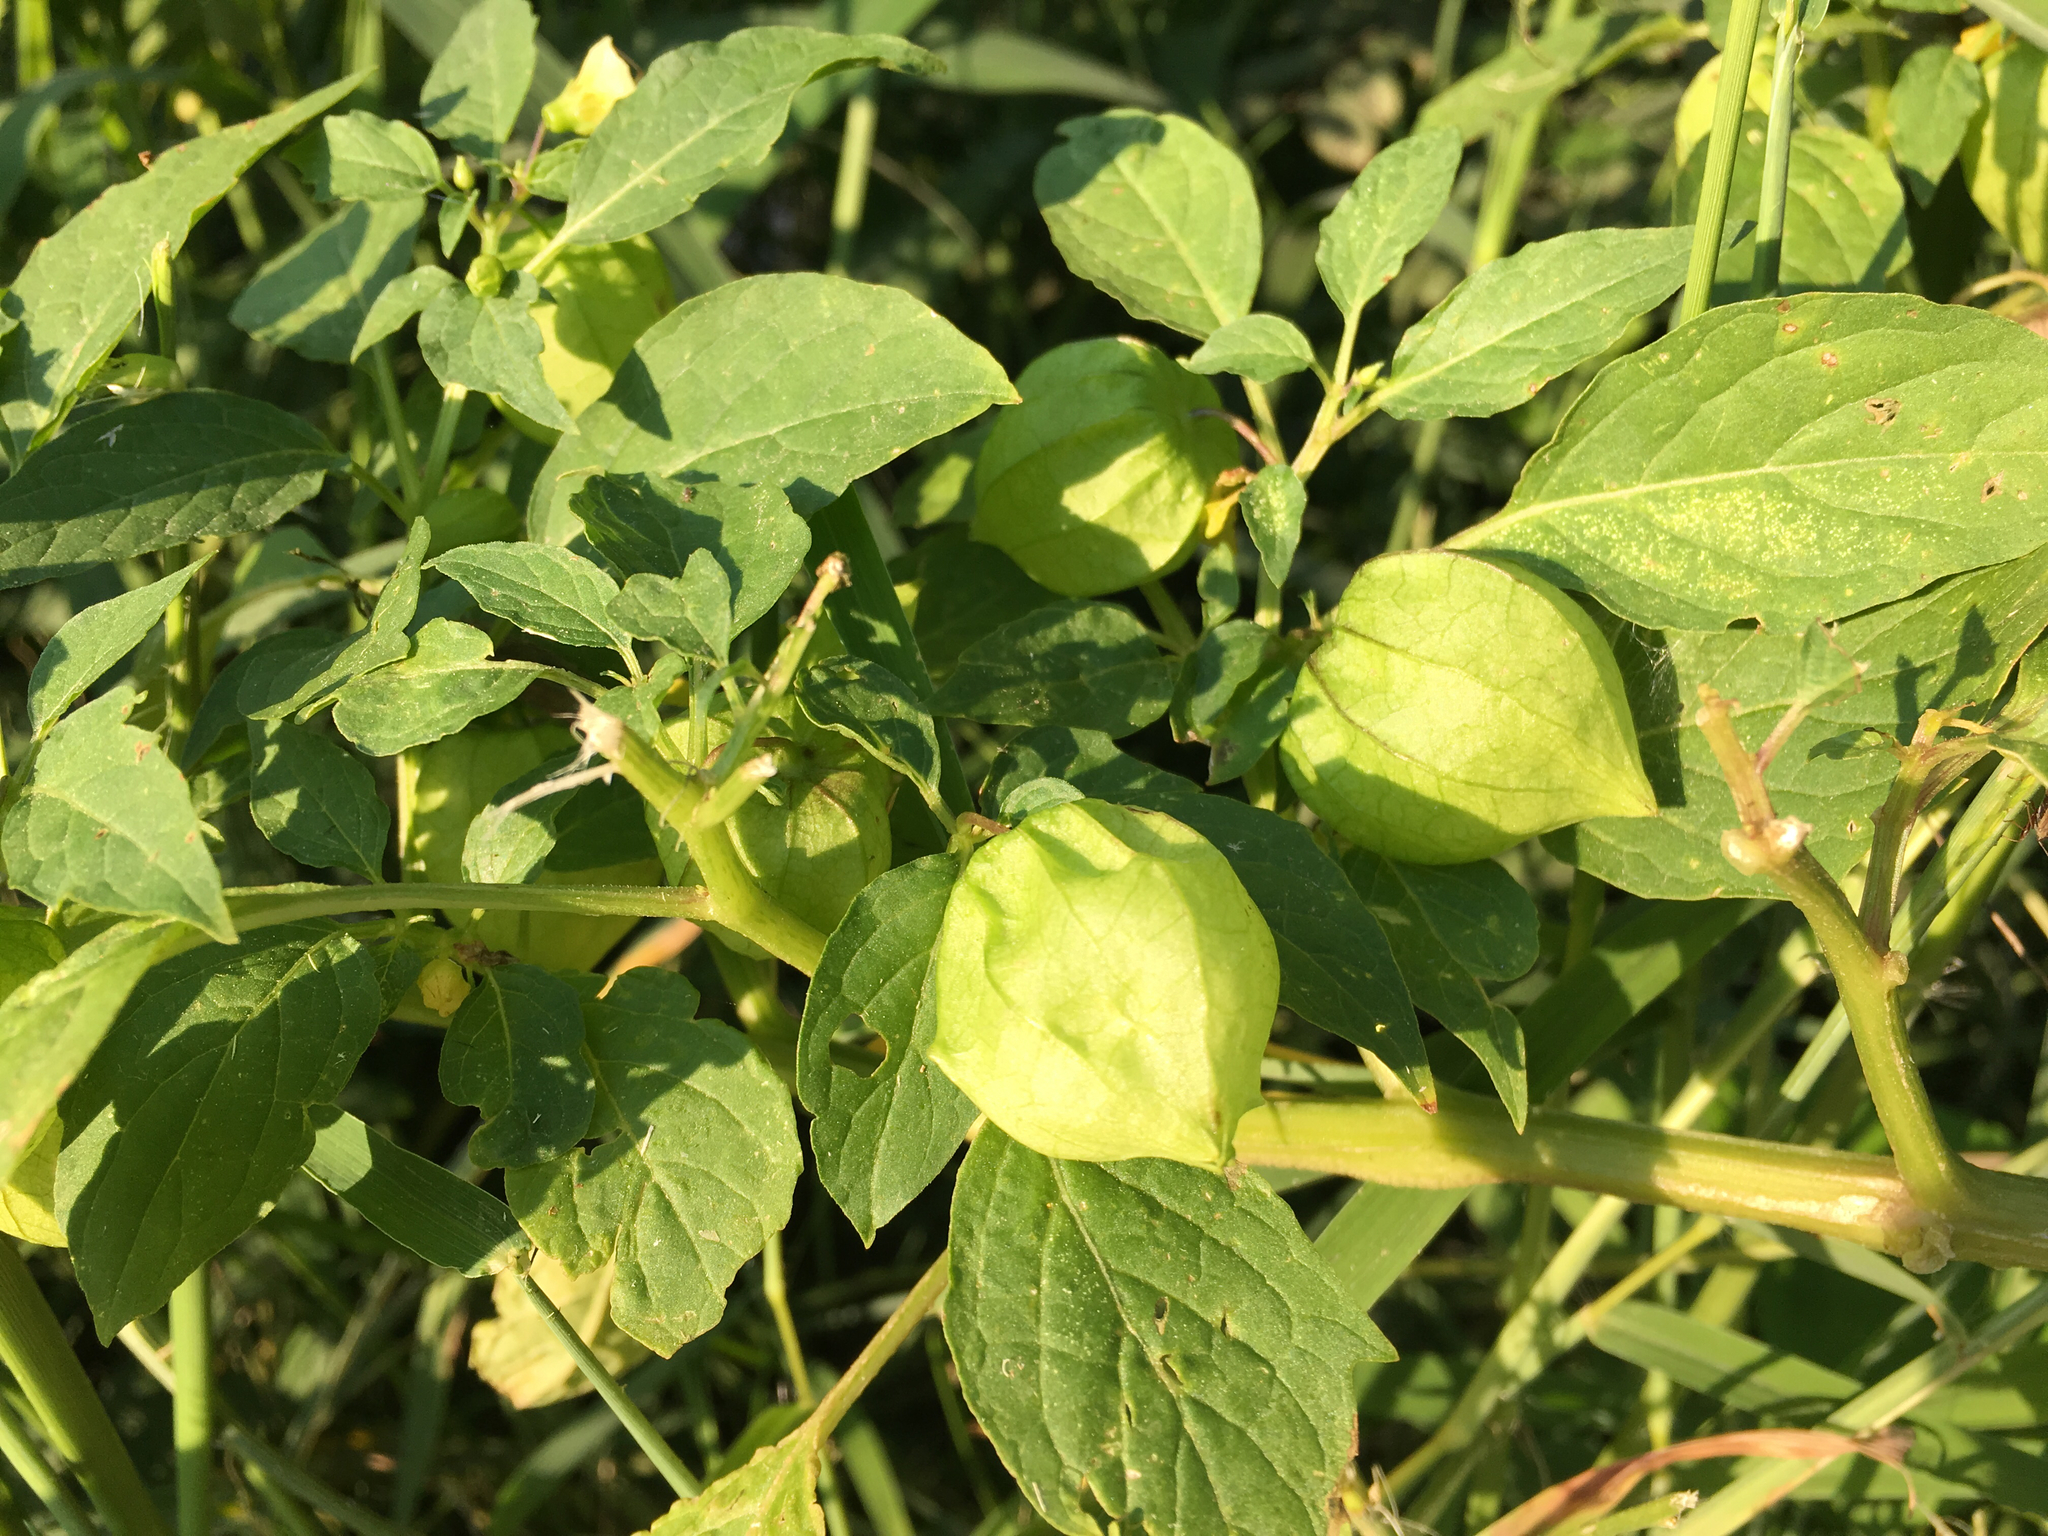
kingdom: Plantae
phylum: Tracheophyta
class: Magnoliopsida
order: Solanales
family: Solanaceae
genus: Physalis
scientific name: Physalis angulata
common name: Angular winter-cherry
